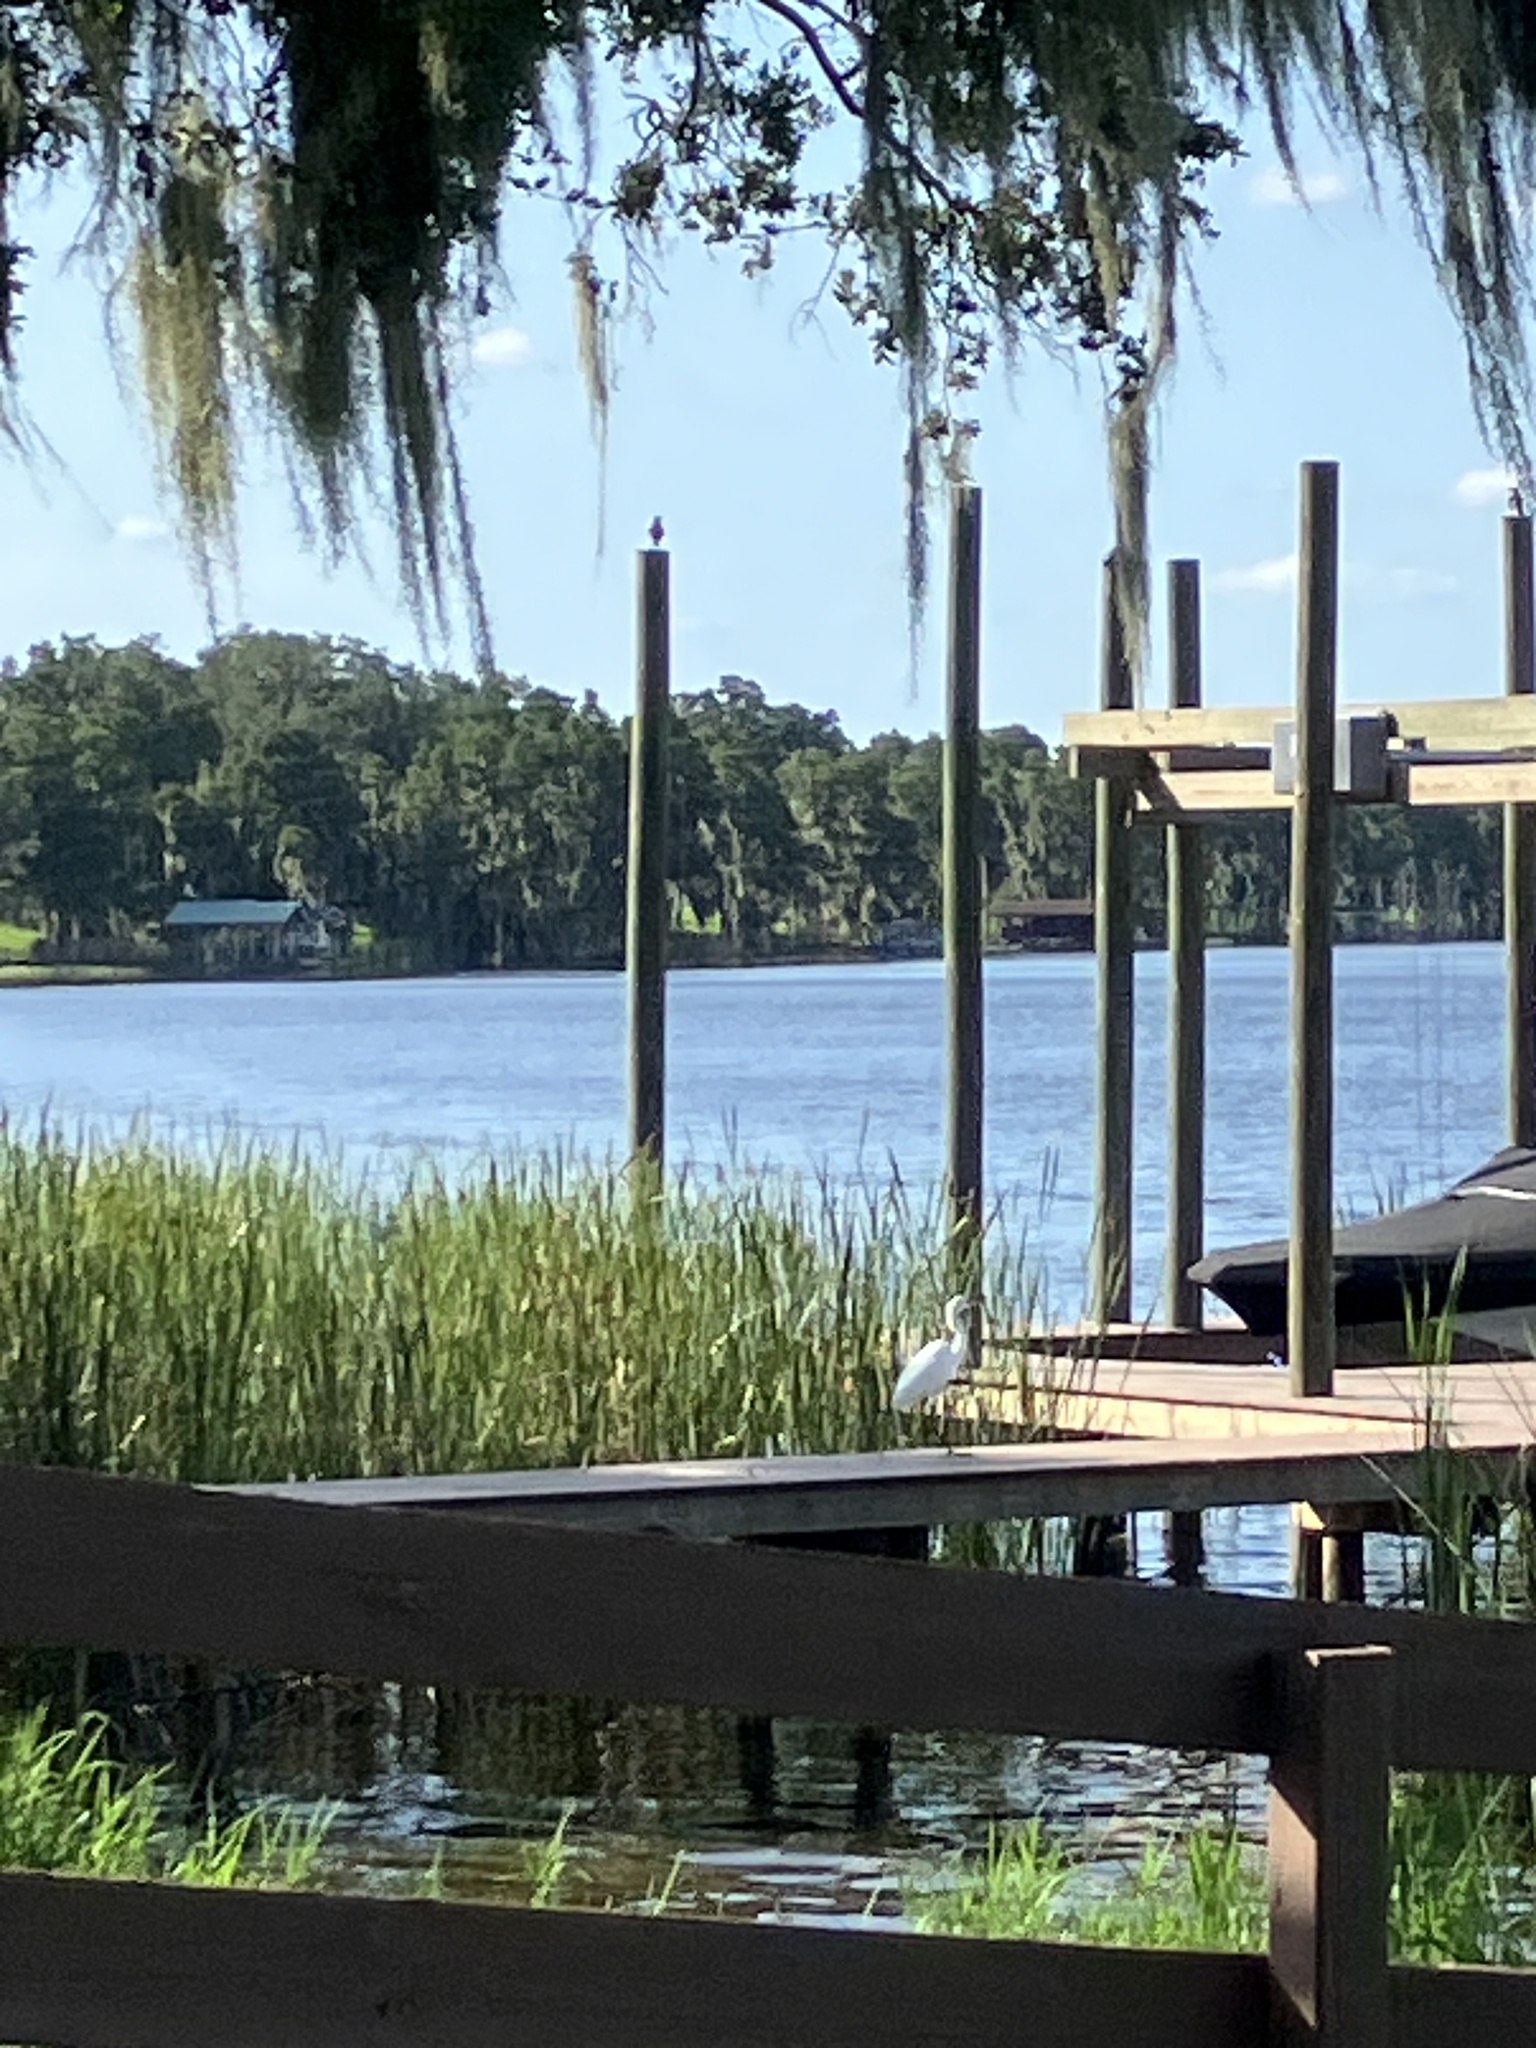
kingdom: Animalia
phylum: Chordata
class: Aves
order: Pelecaniformes
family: Ardeidae
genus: Egretta
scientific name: Egretta thula
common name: Snowy egret
